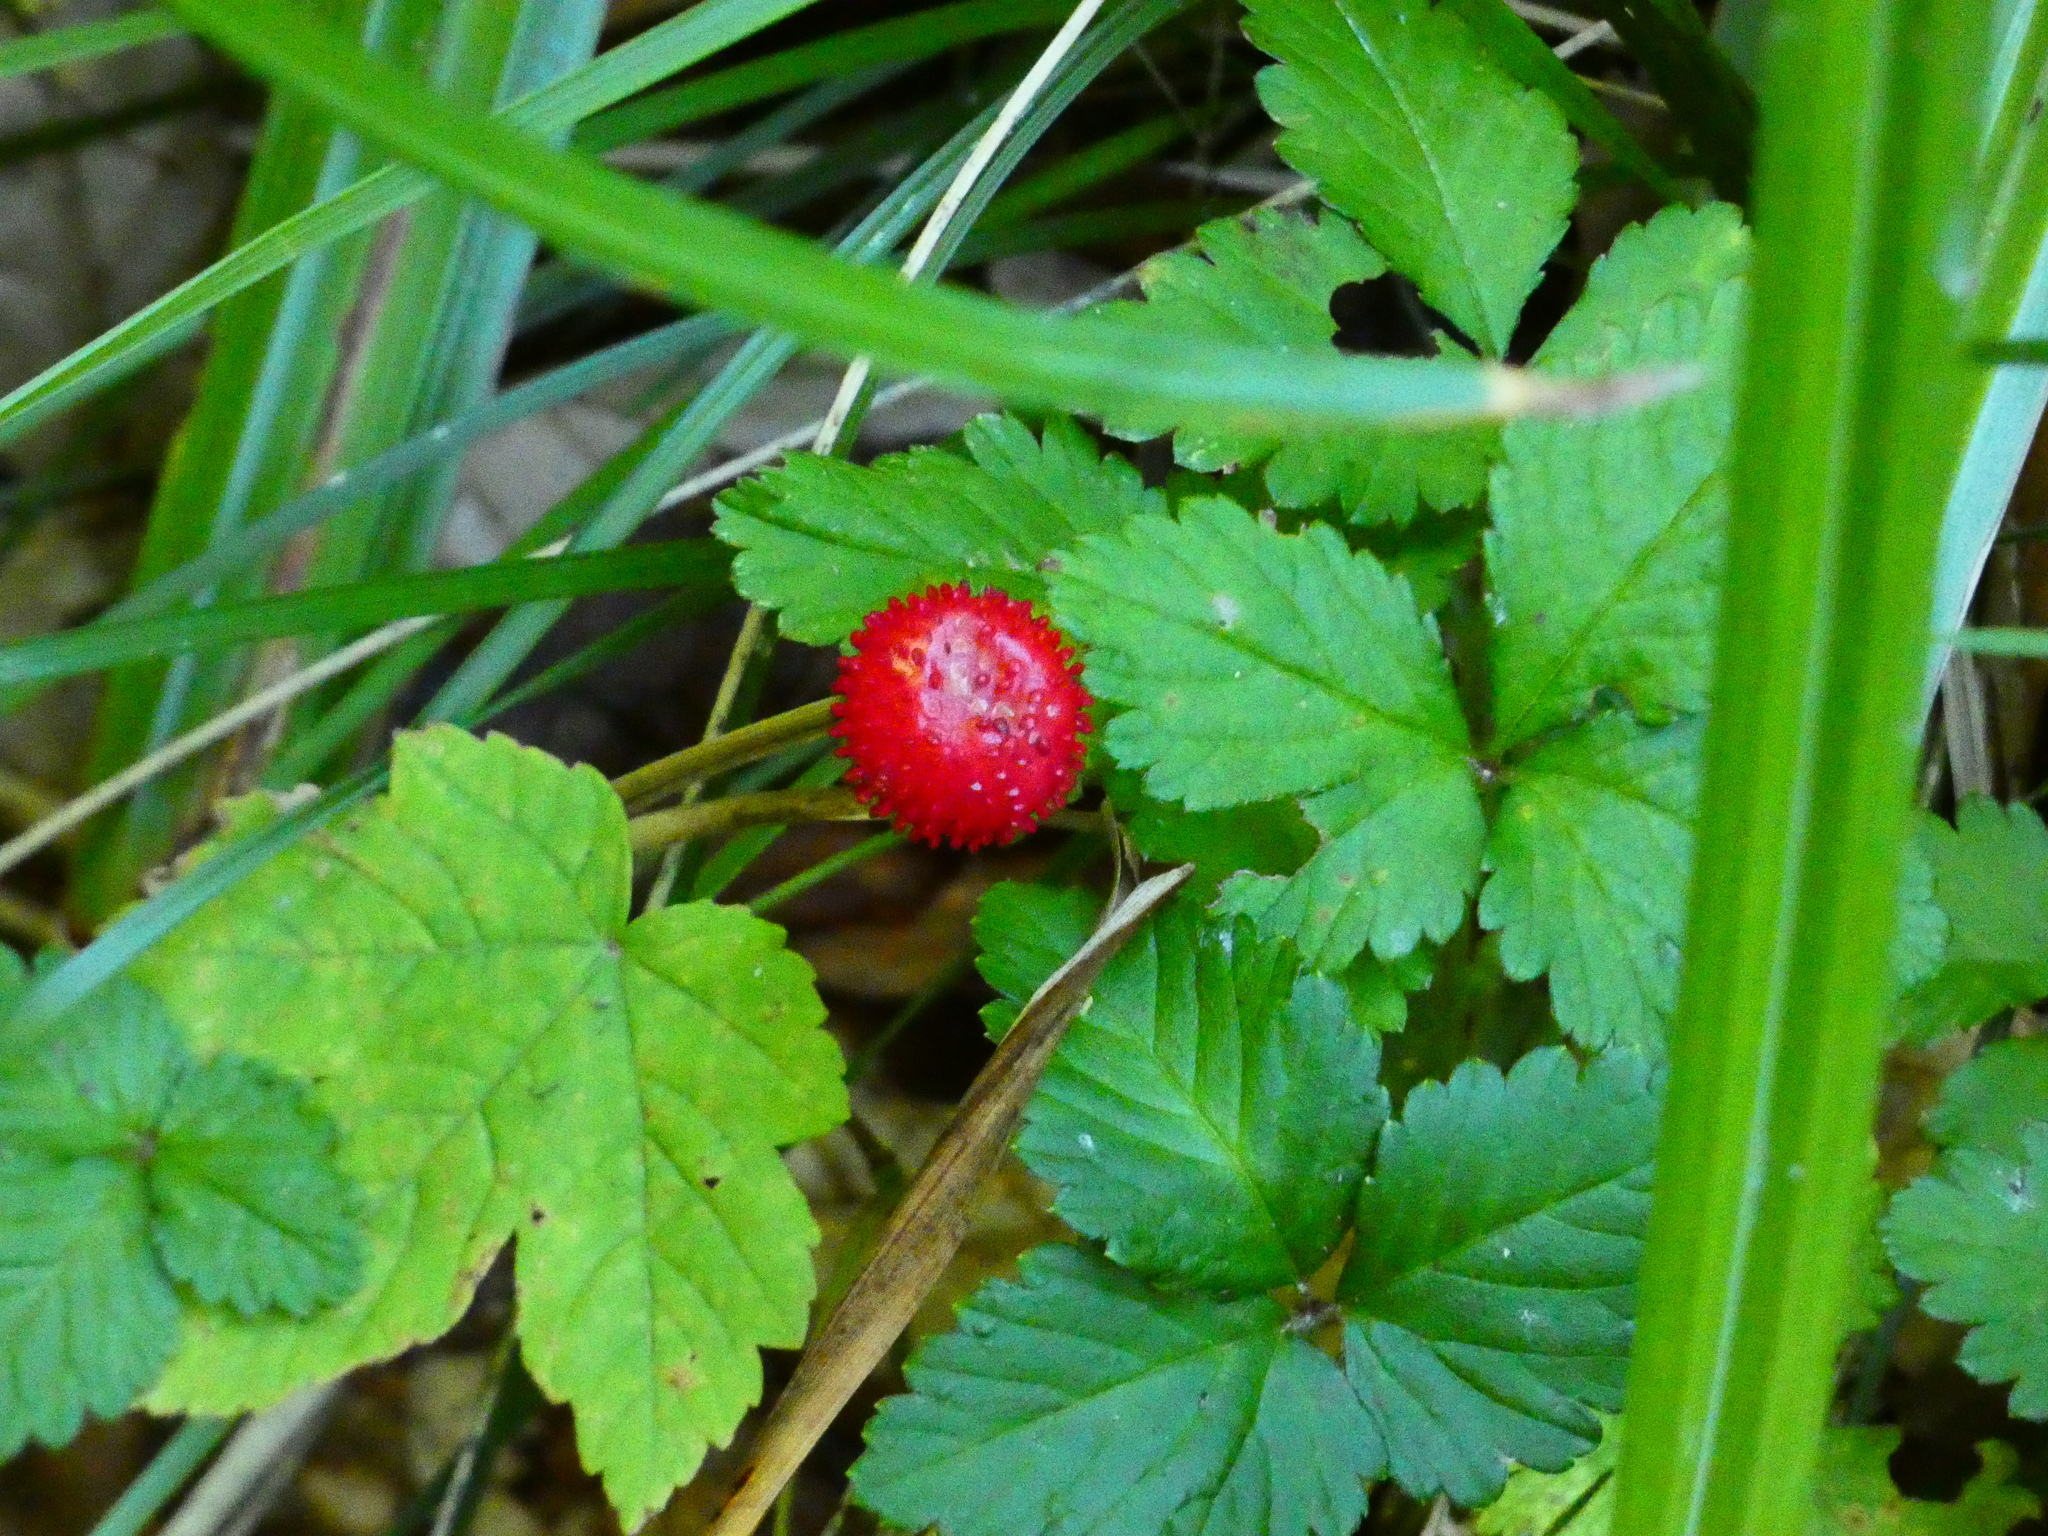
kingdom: Plantae
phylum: Tracheophyta
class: Magnoliopsida
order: Rosales
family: Rosaceae
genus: Potentilla
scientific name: Potentilla indica
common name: Yellow-flowered strawberry
